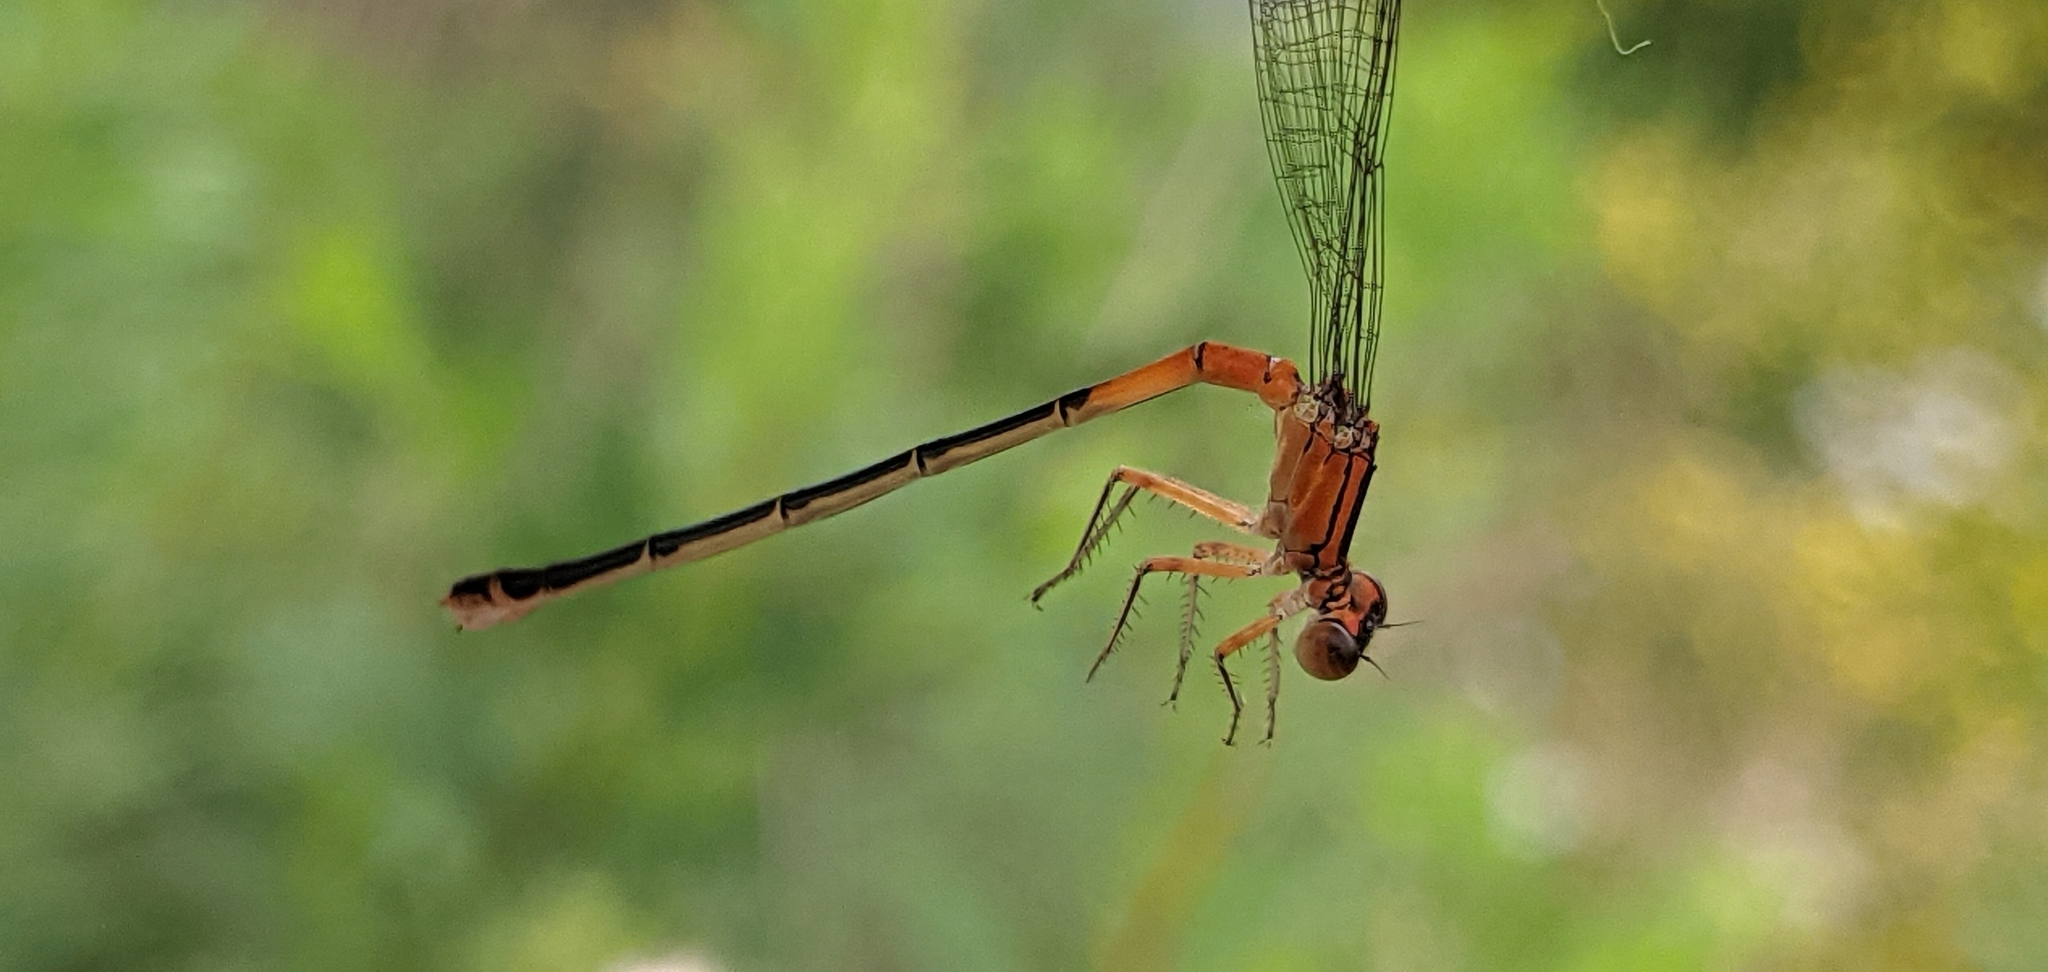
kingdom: Animalia
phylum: Arthropoda
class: Insecta
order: Odonata
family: Coenagrionidae
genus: Ischnura
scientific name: Ischnura verticalis
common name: Eastern forktail
